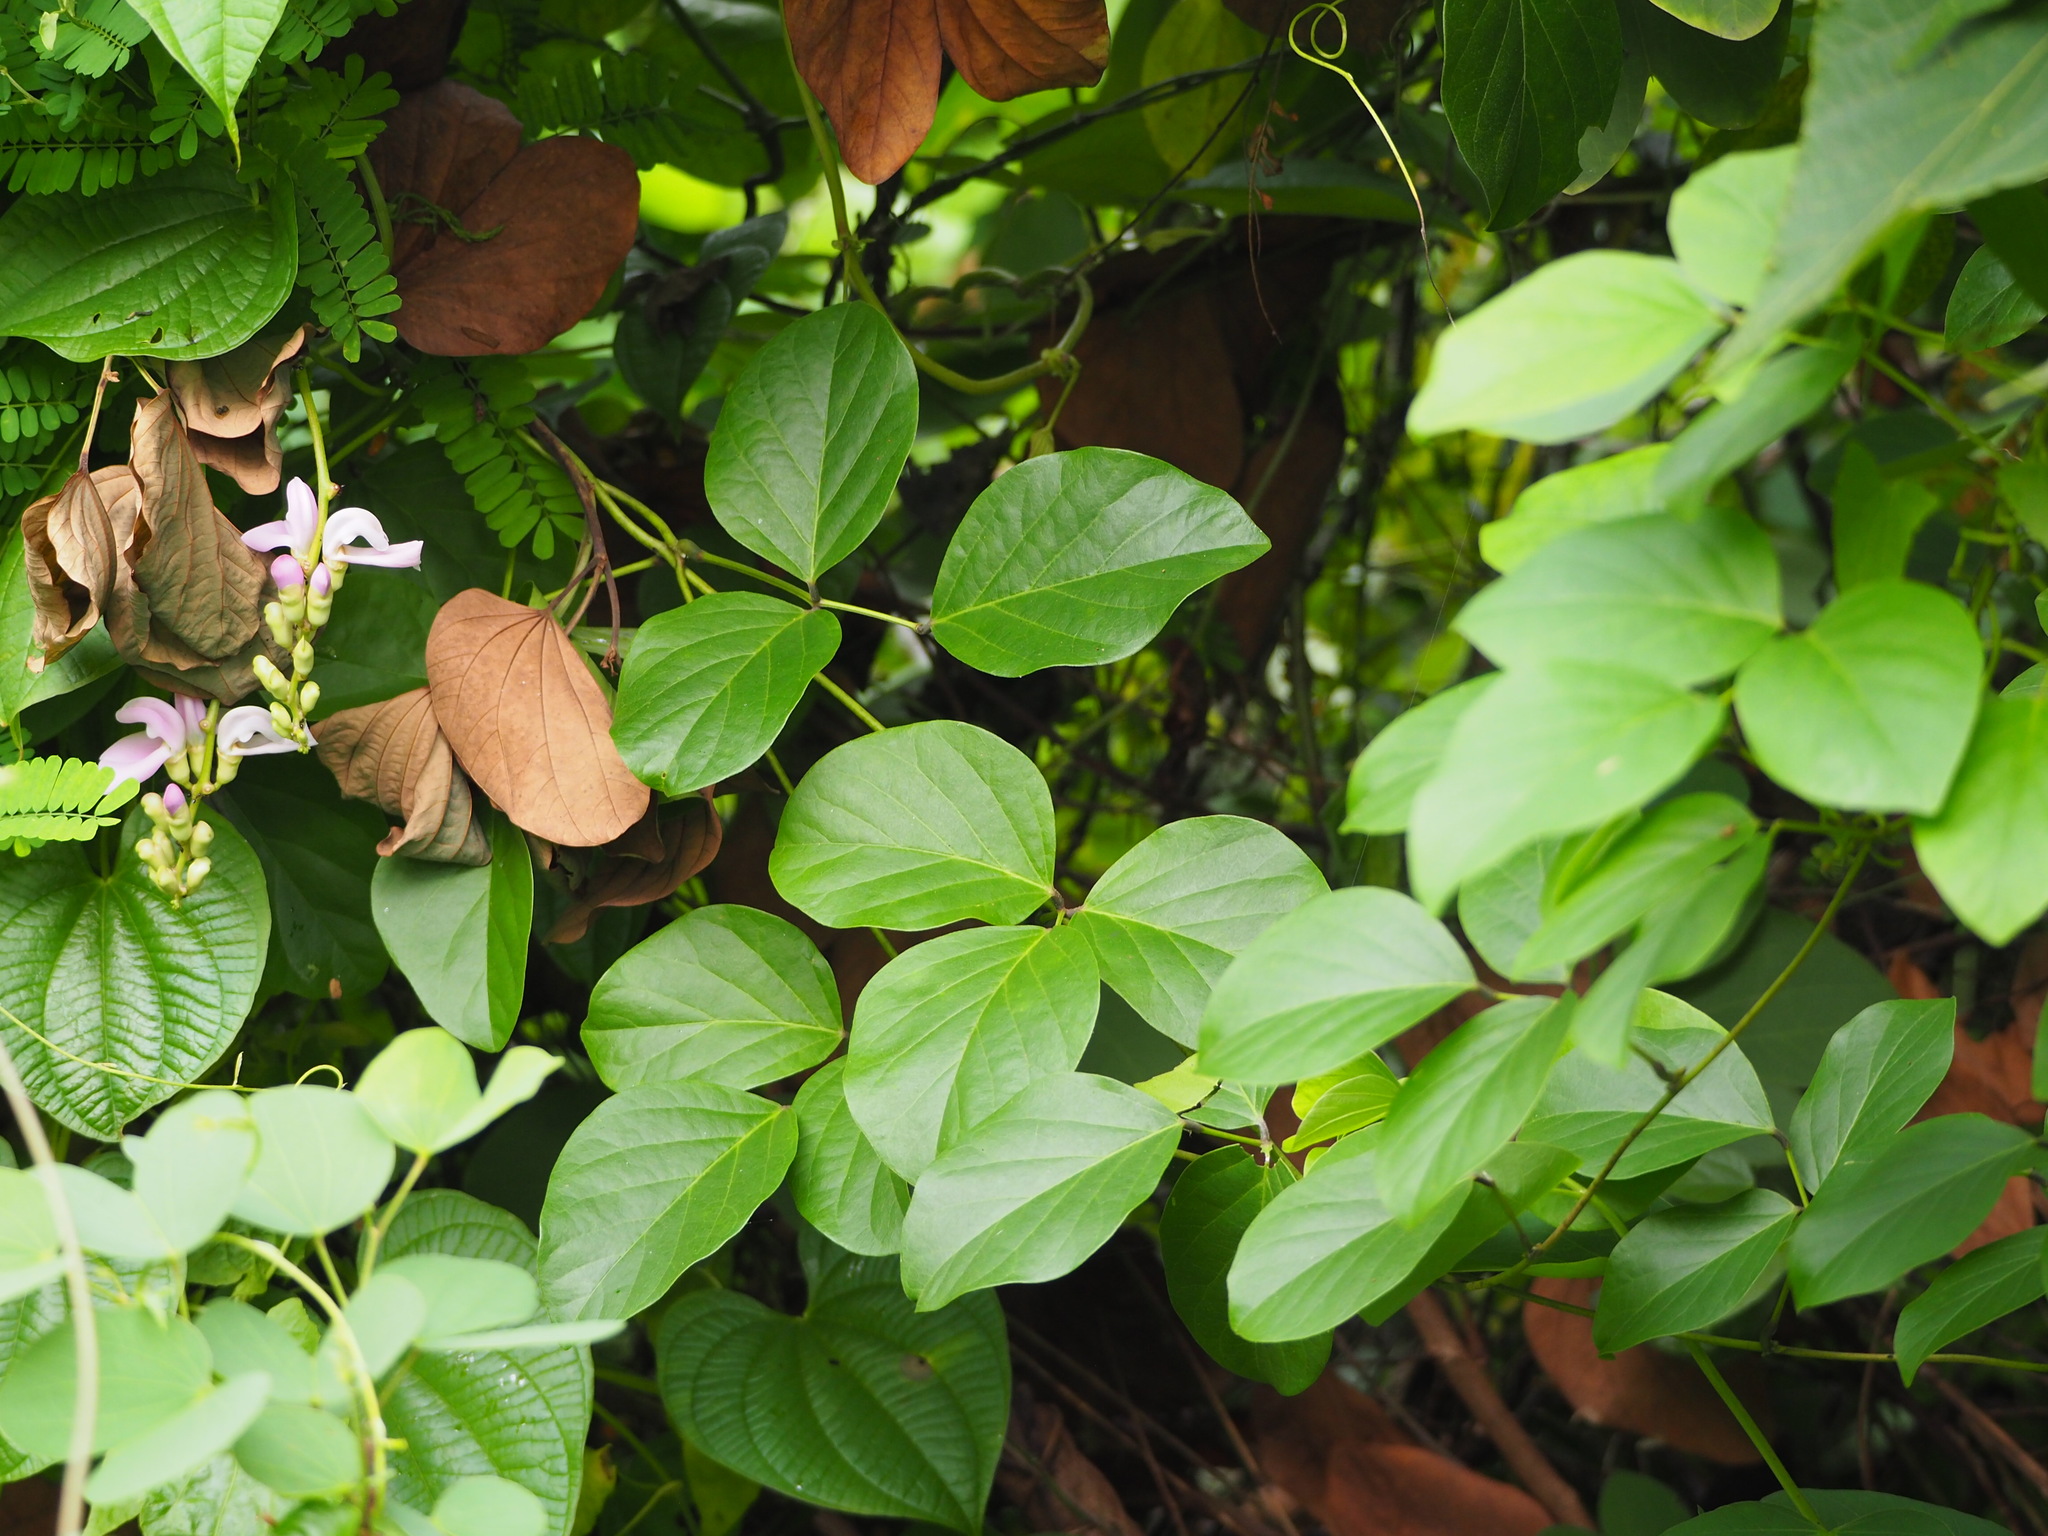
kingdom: Plantae
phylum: Tracheophyta
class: Magnoliopsida
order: Fabales
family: Fabaceae
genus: Canavalia
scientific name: Canavalia lineata
